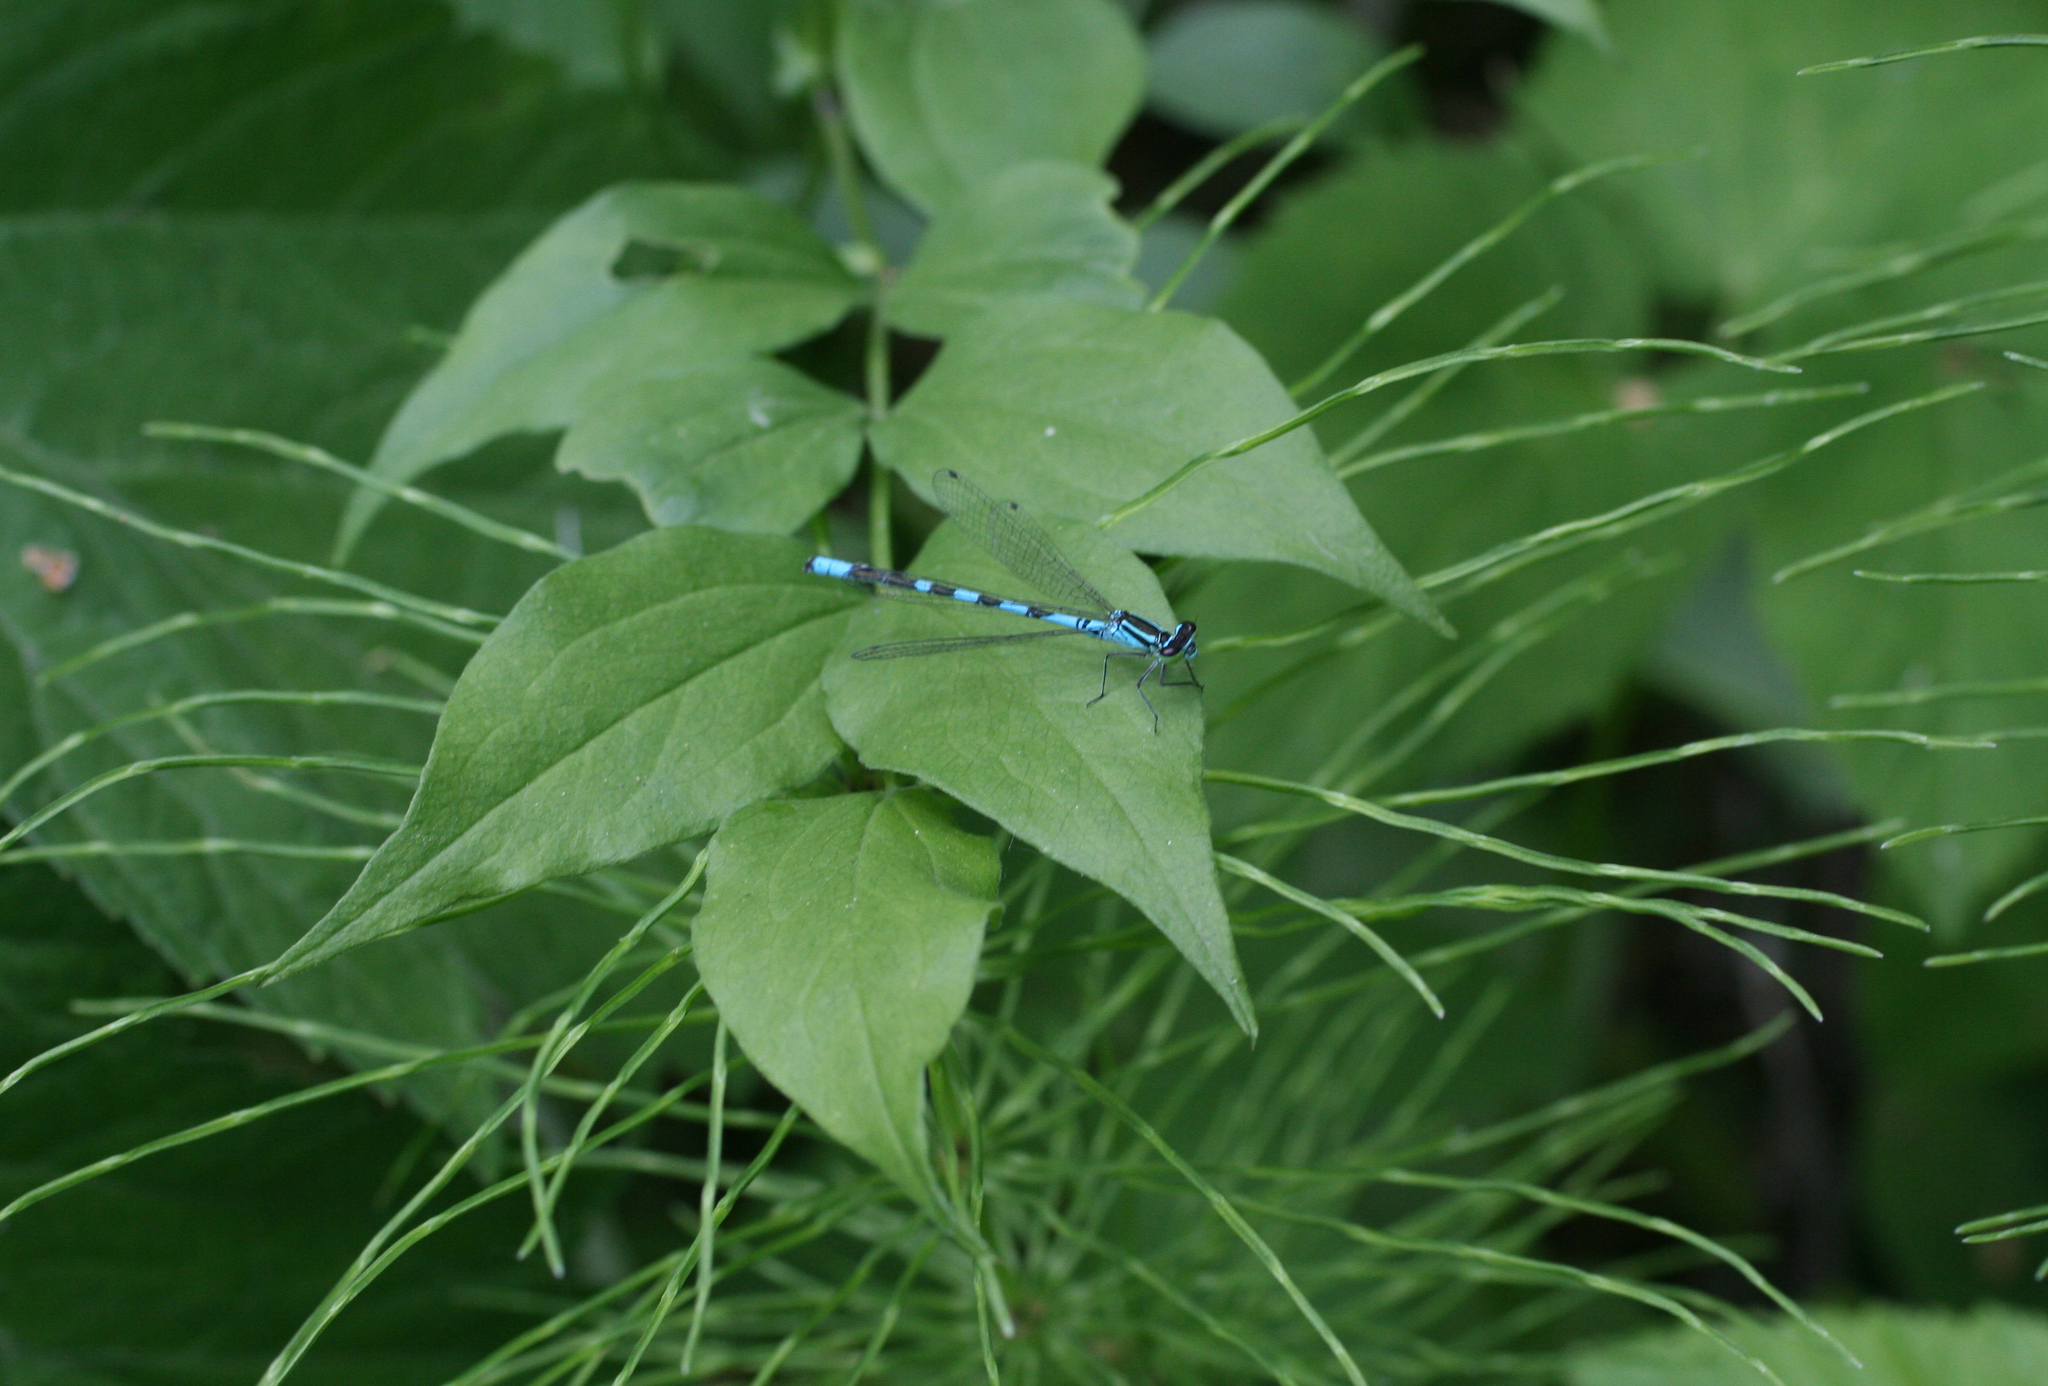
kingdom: Animalia
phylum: Arthropoda
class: Insecta
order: Odonata
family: Coenagrionidae
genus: Coenagrion
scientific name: Coenagrion hastulatum
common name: Spearhead bluet
